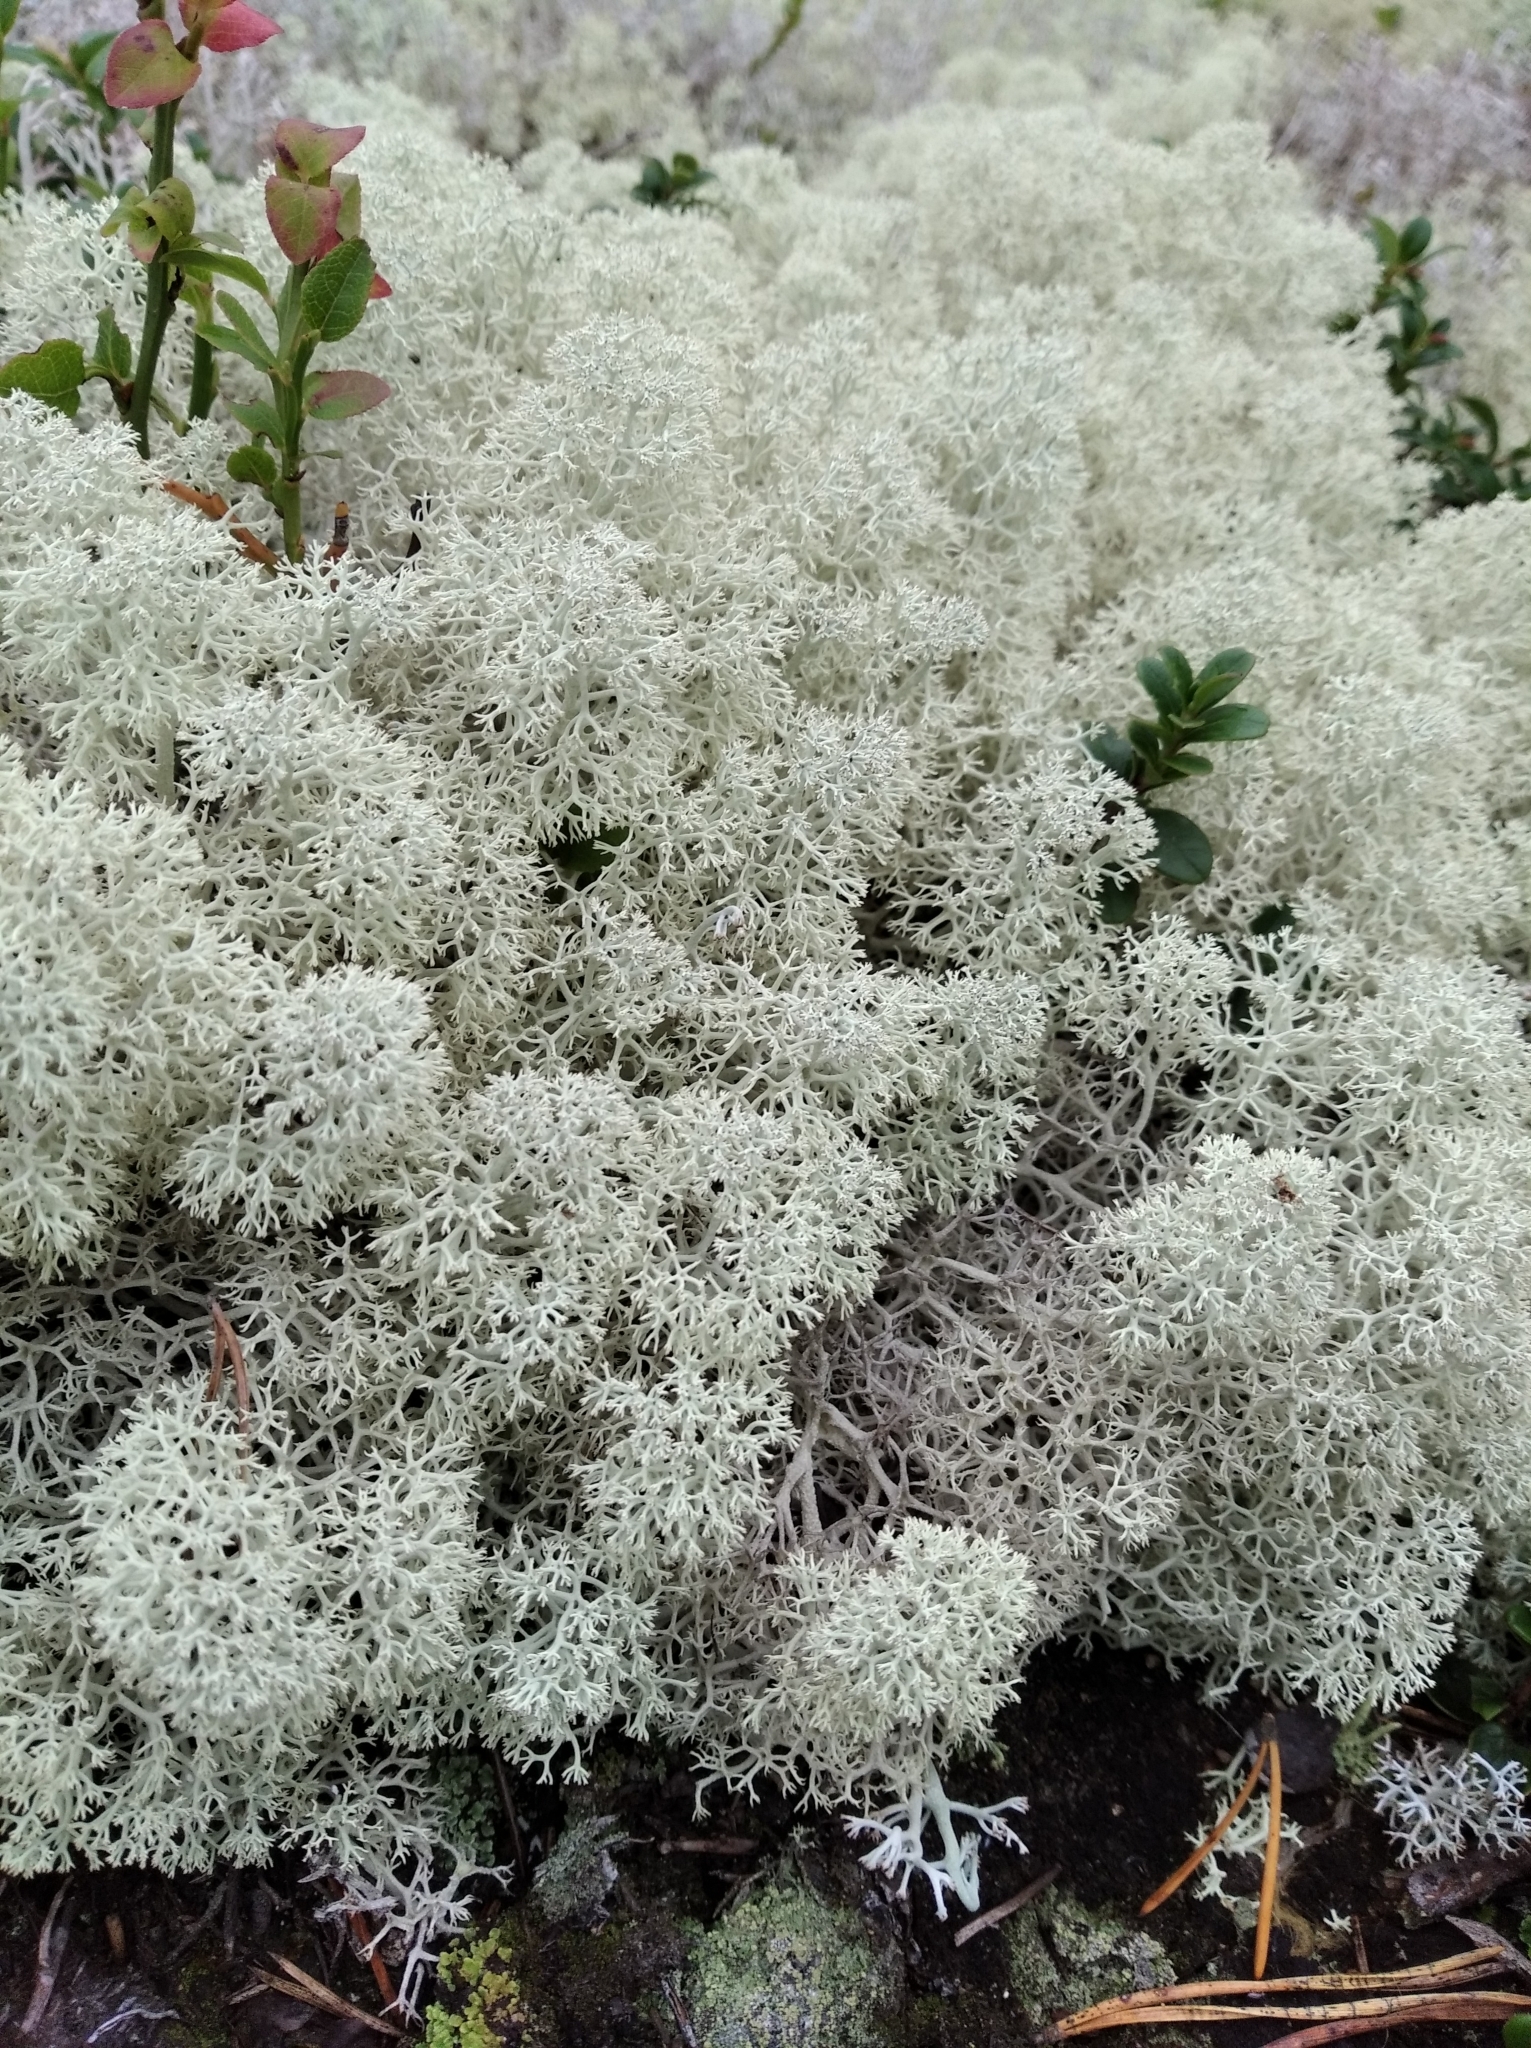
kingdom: Fungi
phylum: Ascomycota
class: Lecanoromycetes
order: Lecanorales
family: Cladoniaceae
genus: Cladonia
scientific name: Cladonia stellaris
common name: Star-tipped reindeer lichen
